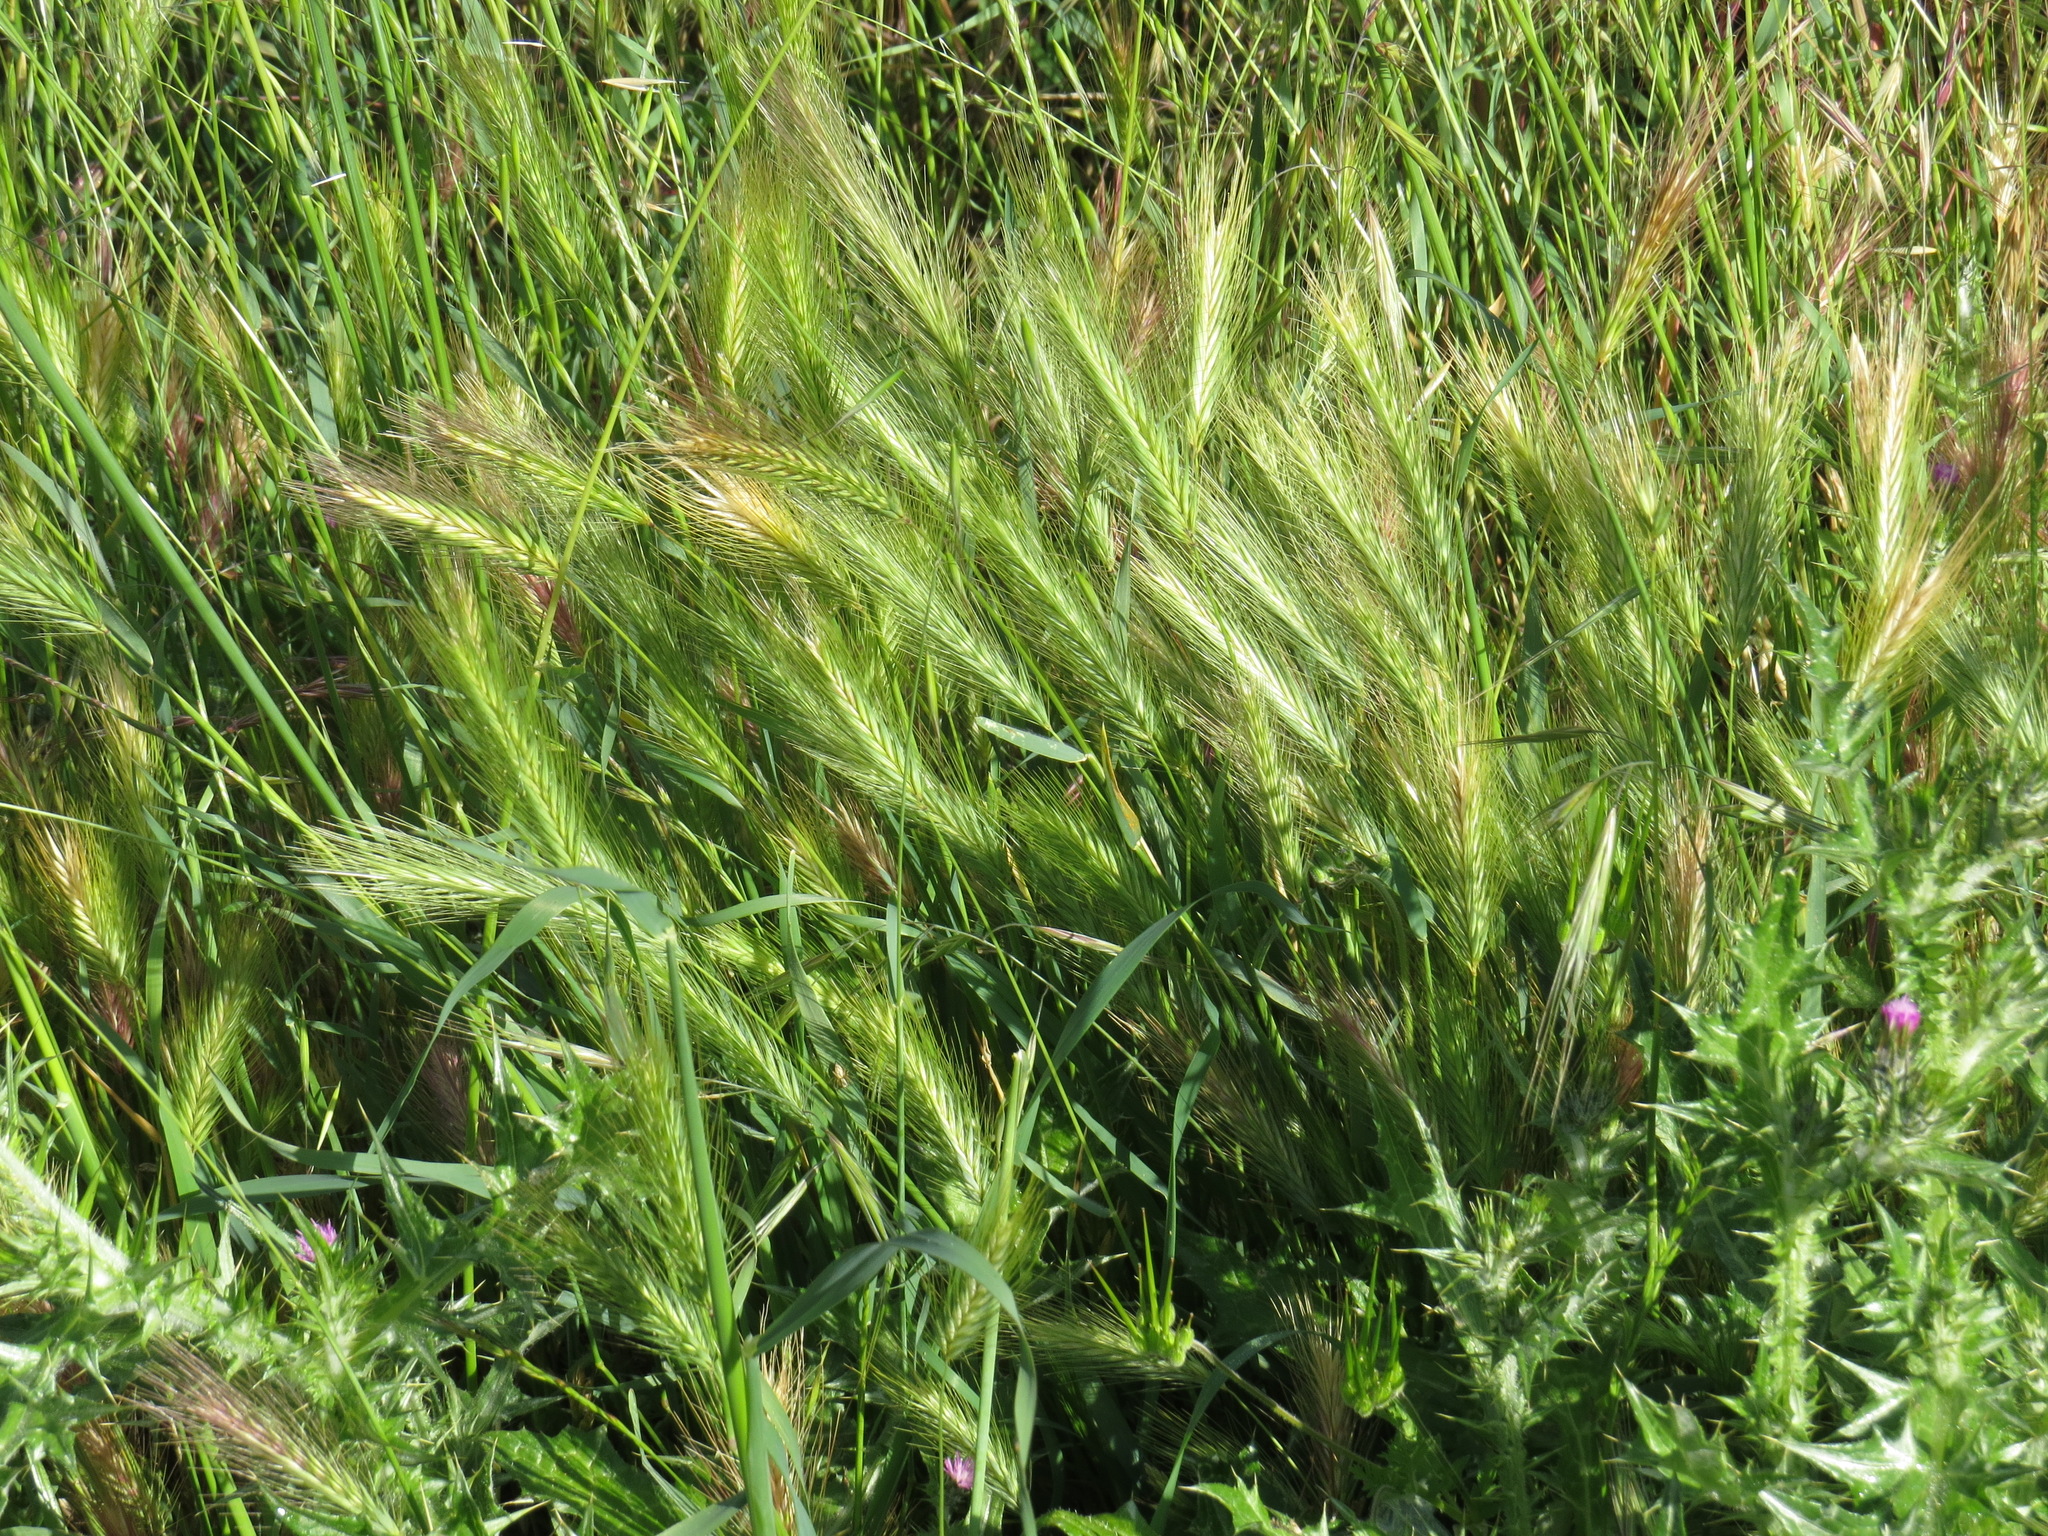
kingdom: Plantae
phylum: Tracheophyta
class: Liliopsida
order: Poales
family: Poaceae
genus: Hordeum
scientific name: Hordeum murinum
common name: Wall barley
